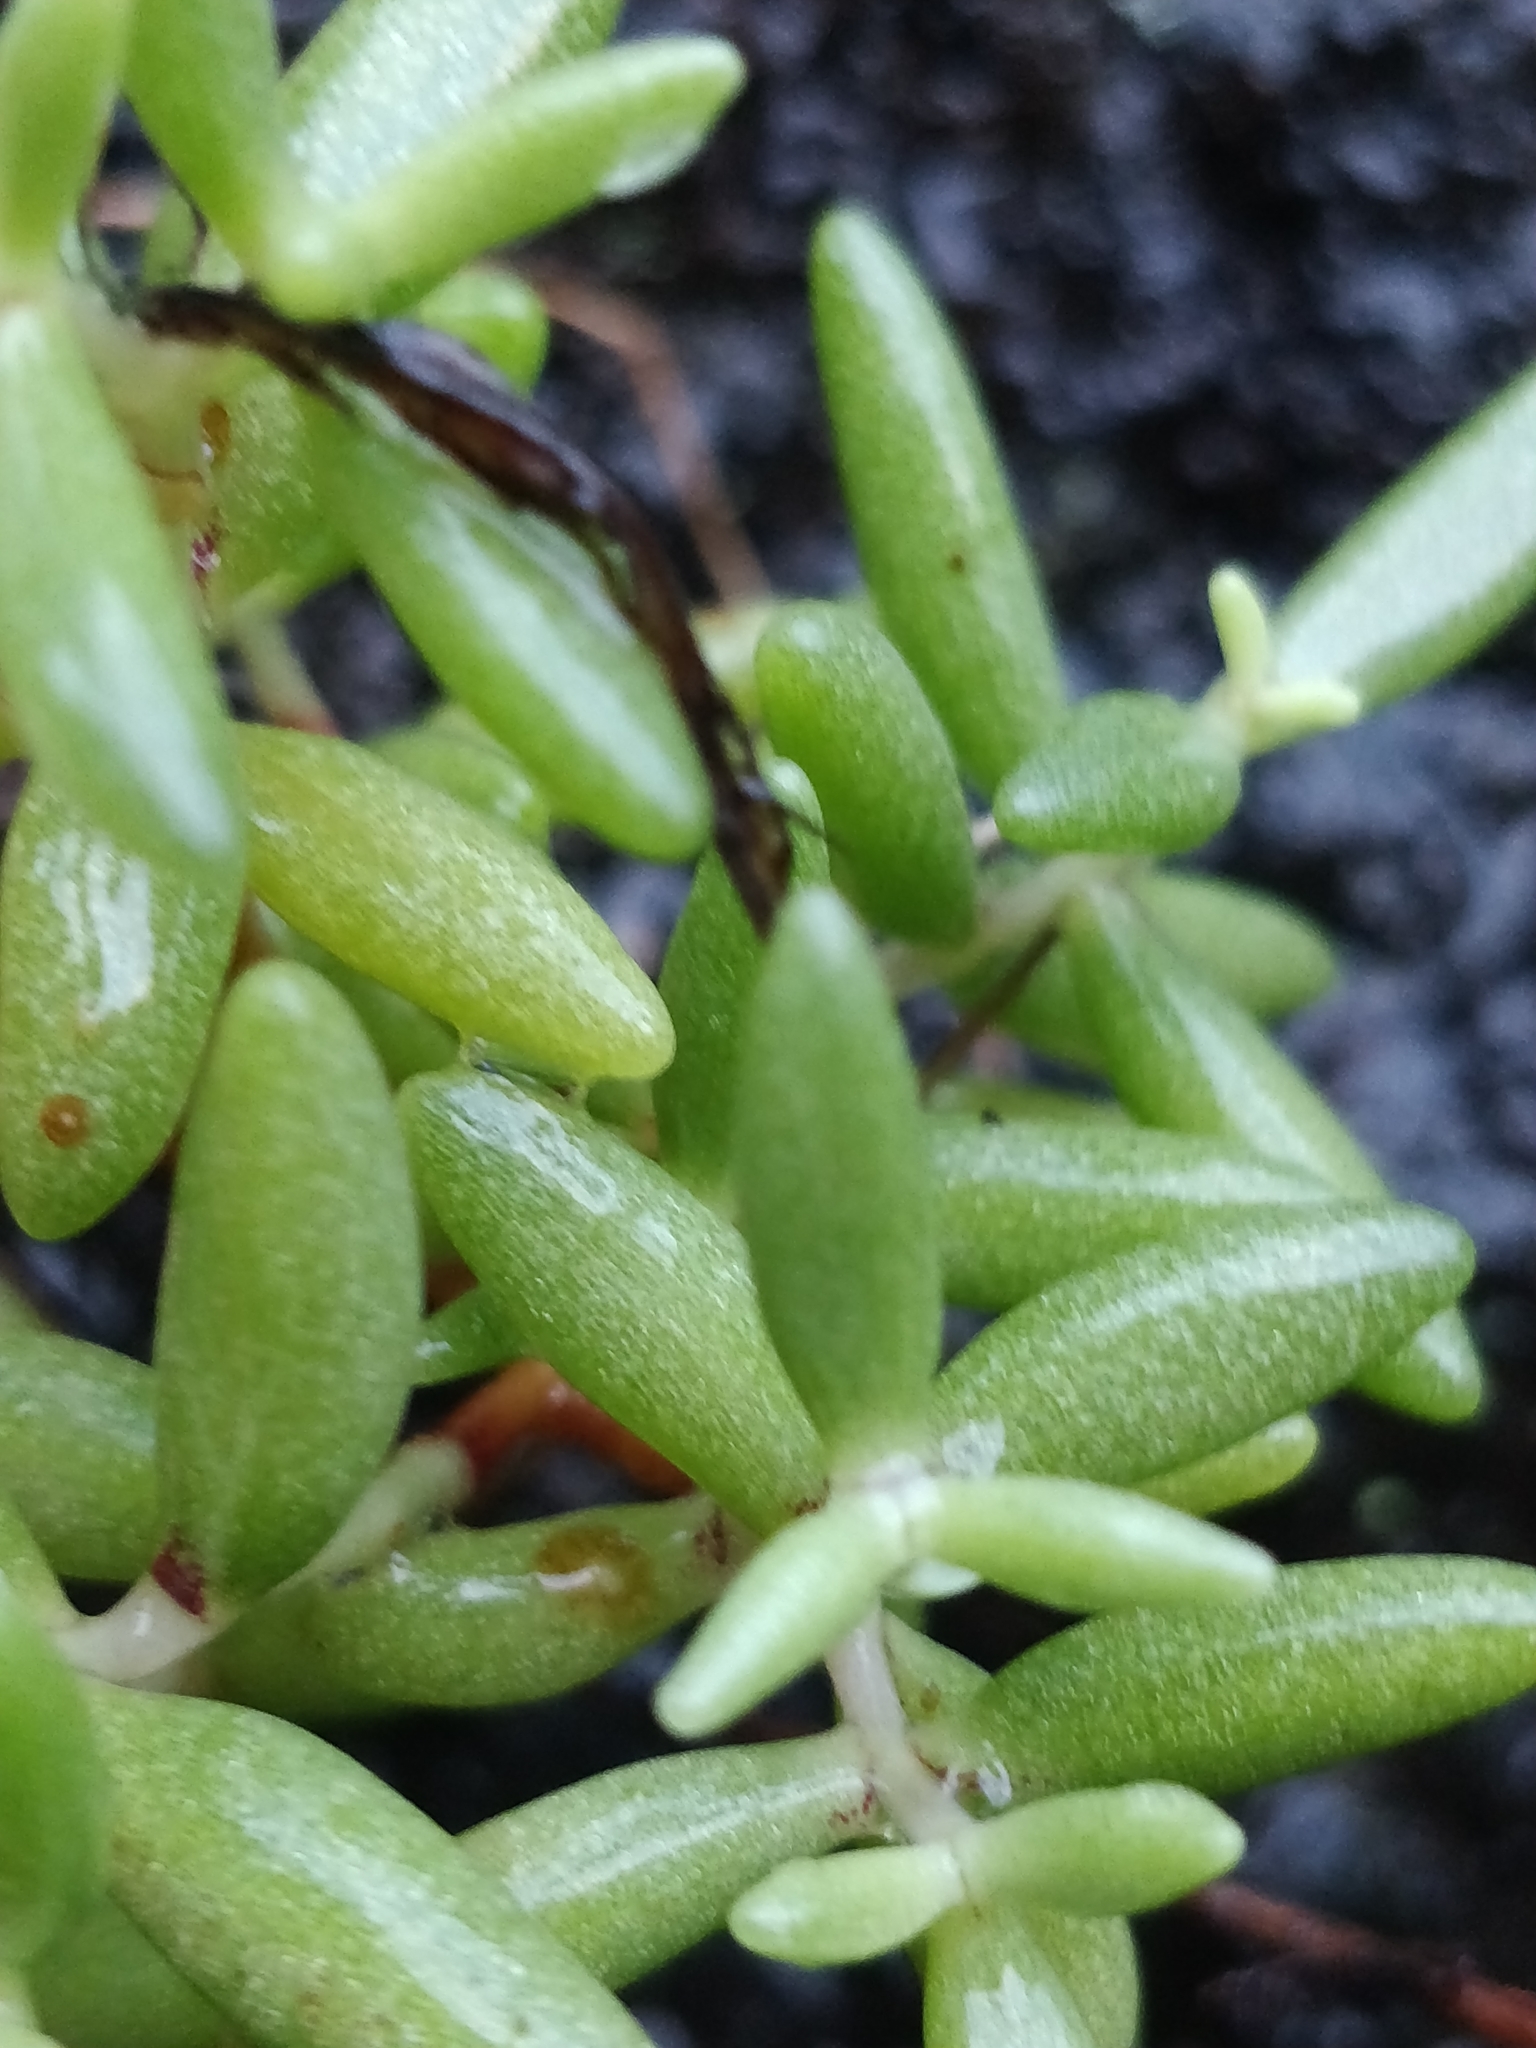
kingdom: Plantae
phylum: Tracheophyta
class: Magnoliopsida
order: Saxifragales
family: Crassulaceae
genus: Sedum
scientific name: Sedum fusiforme
